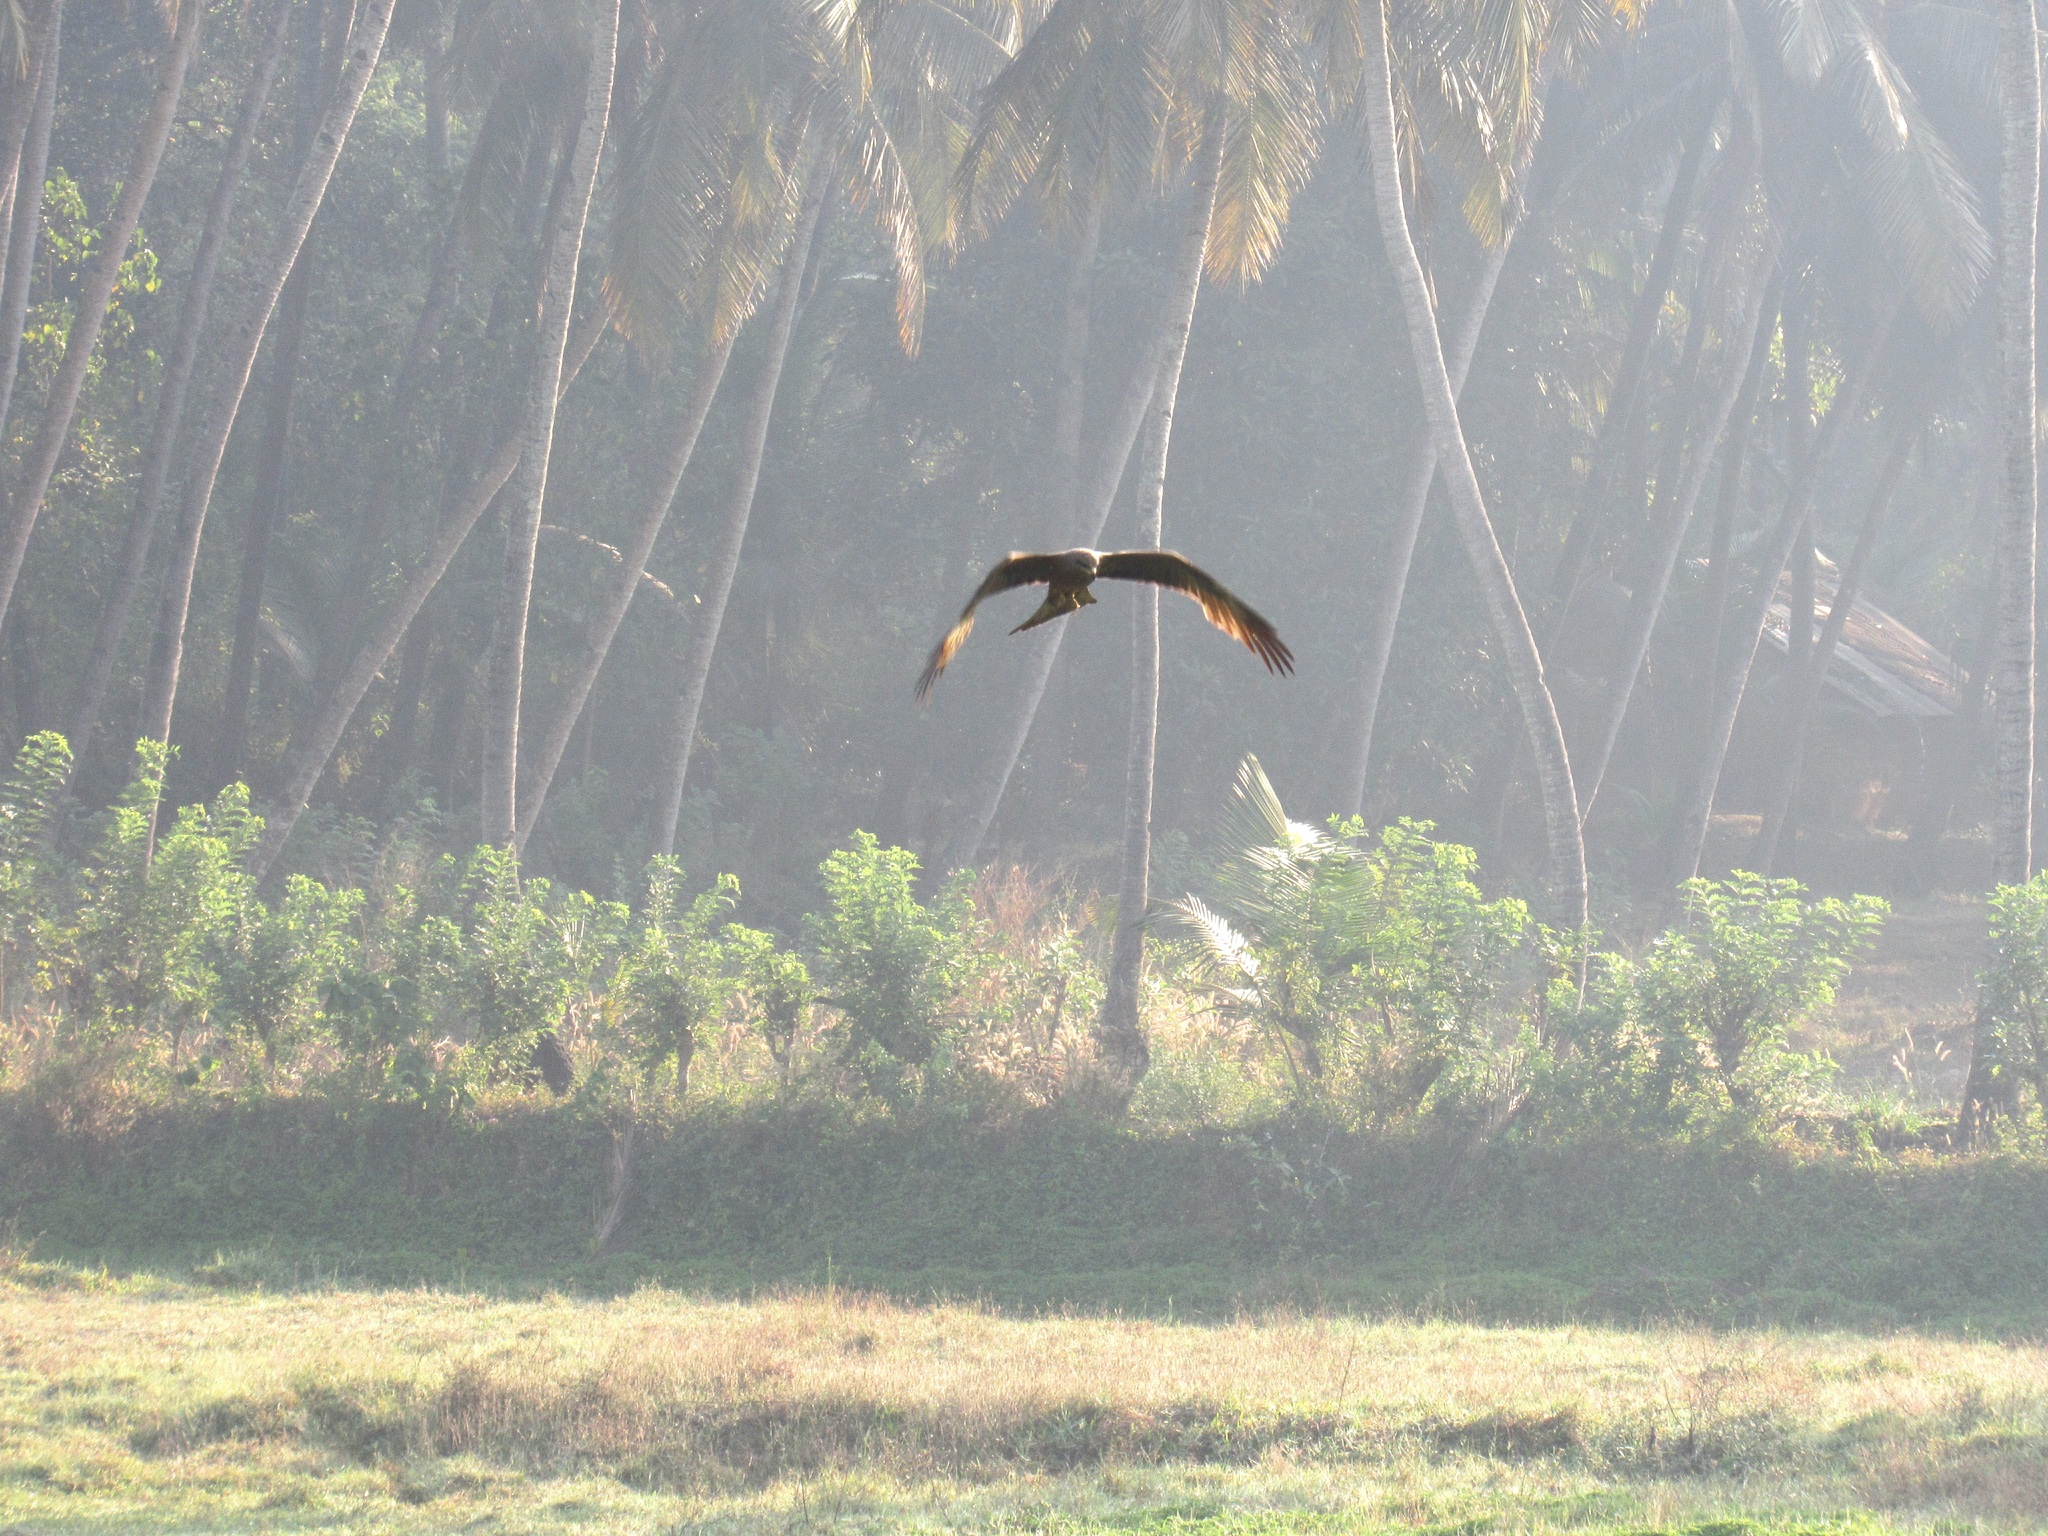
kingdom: Animalia
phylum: Chordata
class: Aves
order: Accipitriformes
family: Accipitridae
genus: Milvus
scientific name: Milvus migrans
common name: Black kite
